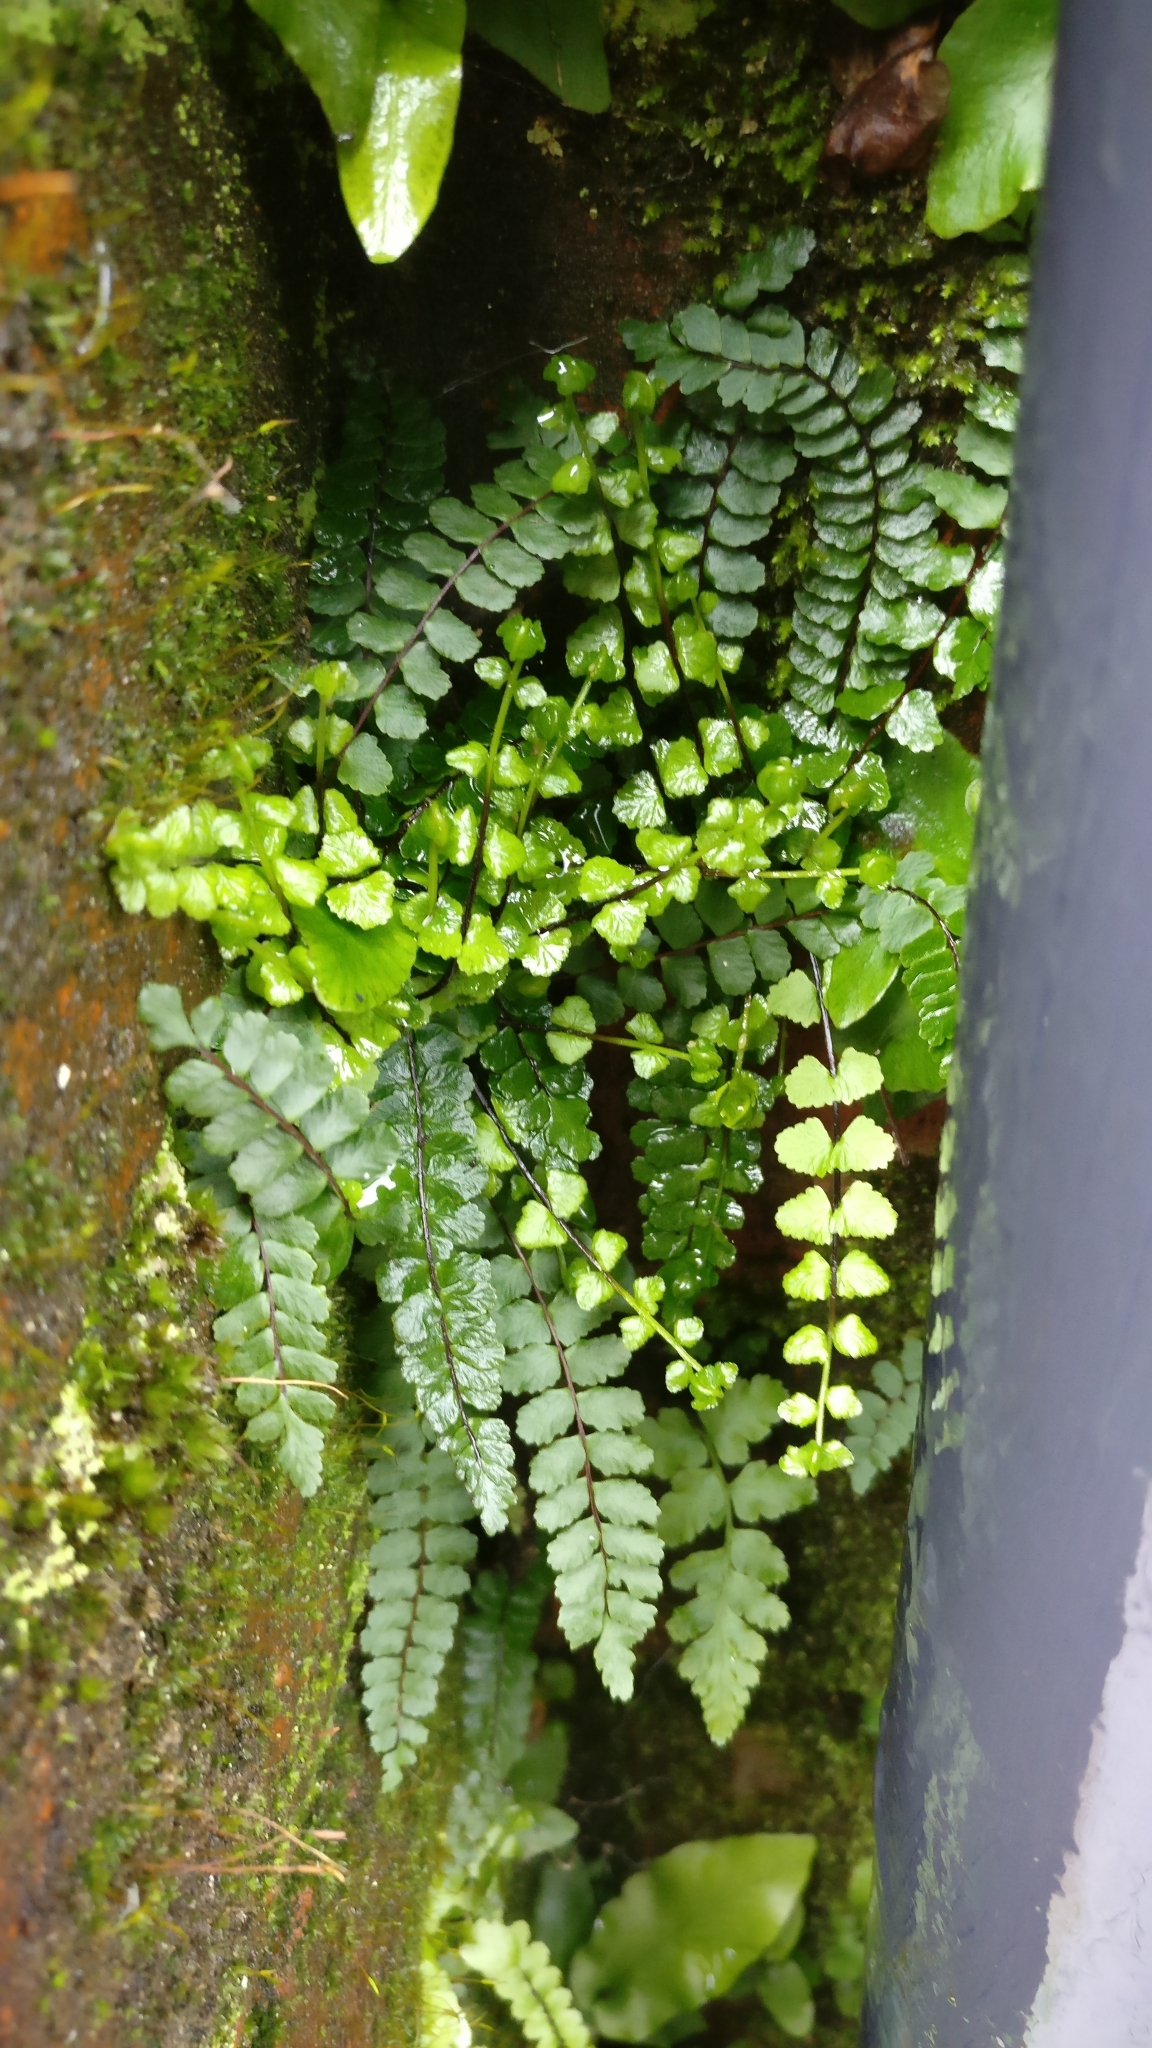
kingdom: Plantae
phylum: Tracheophyta
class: Polypodiopsida
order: Polypodiales
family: Aspleniaceae
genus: Asplenium
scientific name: Asplenium trichomanes
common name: Maidenhair spleenwort
